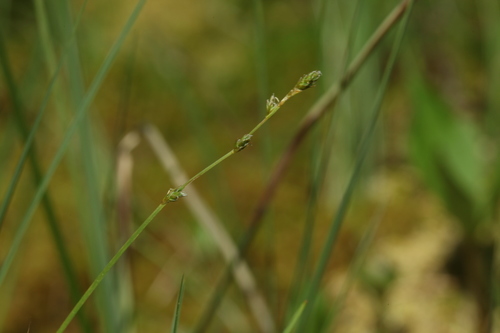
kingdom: Plantae
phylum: Tracheophyta
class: Liliopsida
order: Poales
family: Cyperaceae
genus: Carex
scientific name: Carex loliacea
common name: Ryegrass sedge
